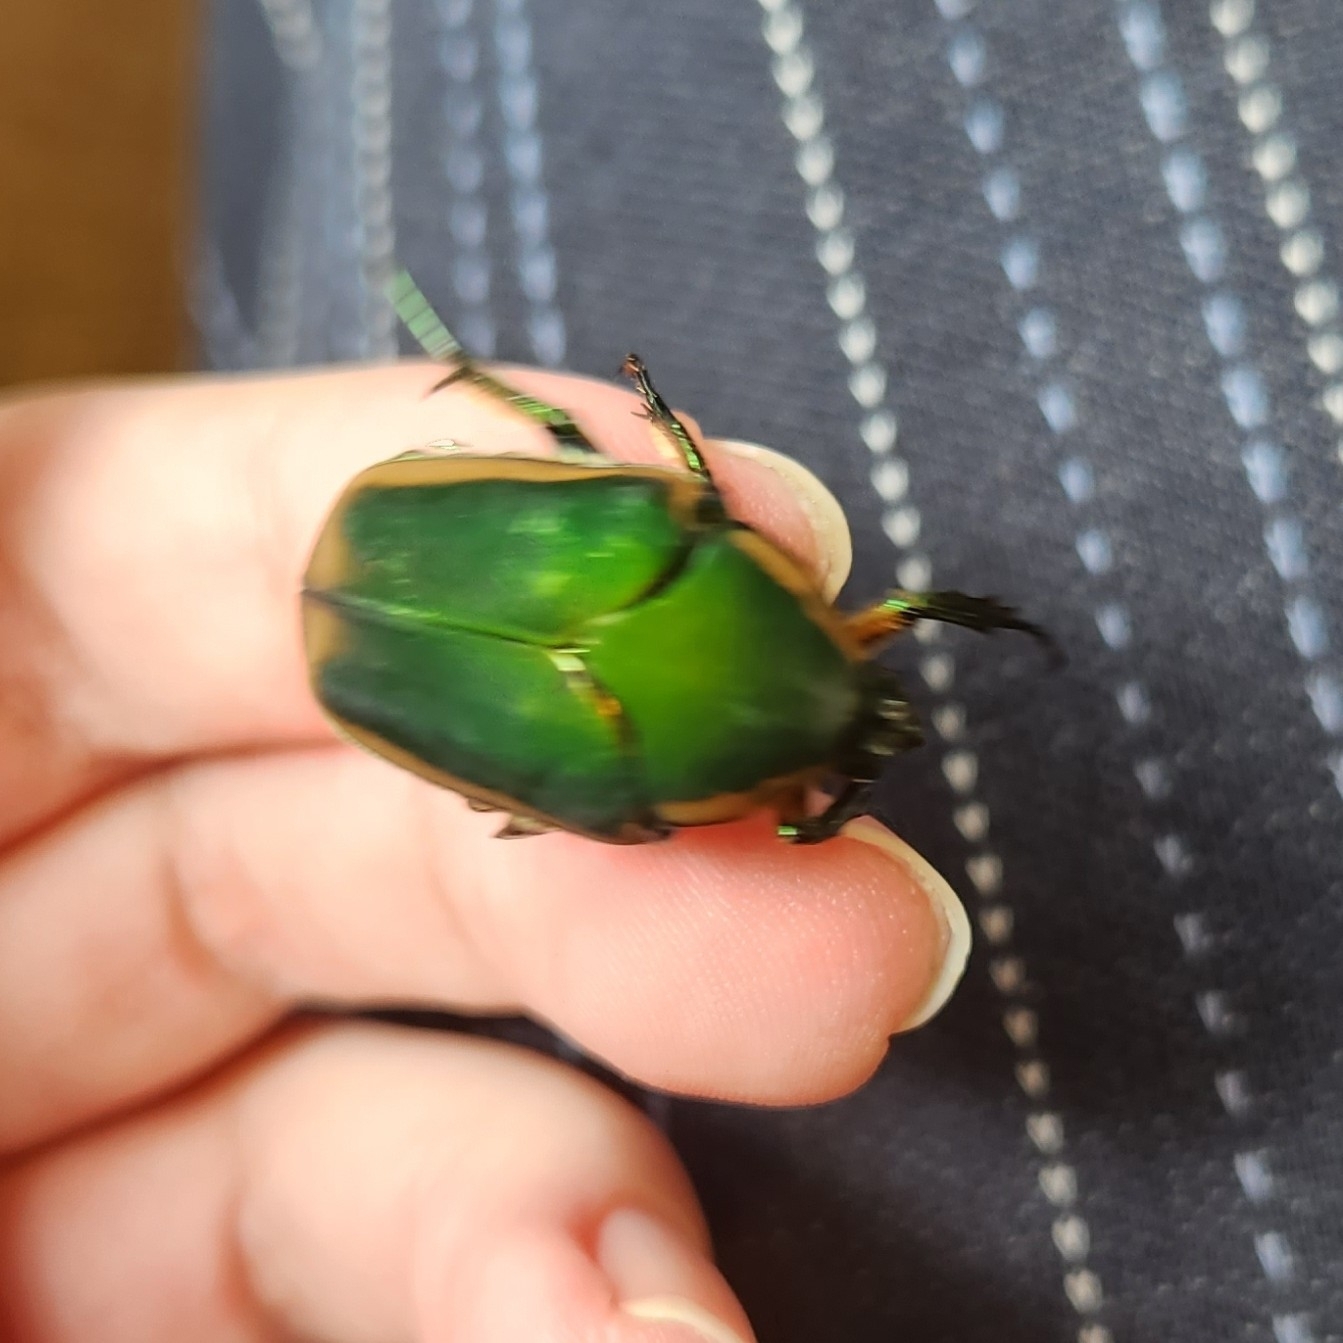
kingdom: Animalia
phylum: Arthropoda
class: Insecta
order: Coleoptera
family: Scarabaeidae
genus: Cotinis
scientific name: Cotinis nitida
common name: Common green june beetle
